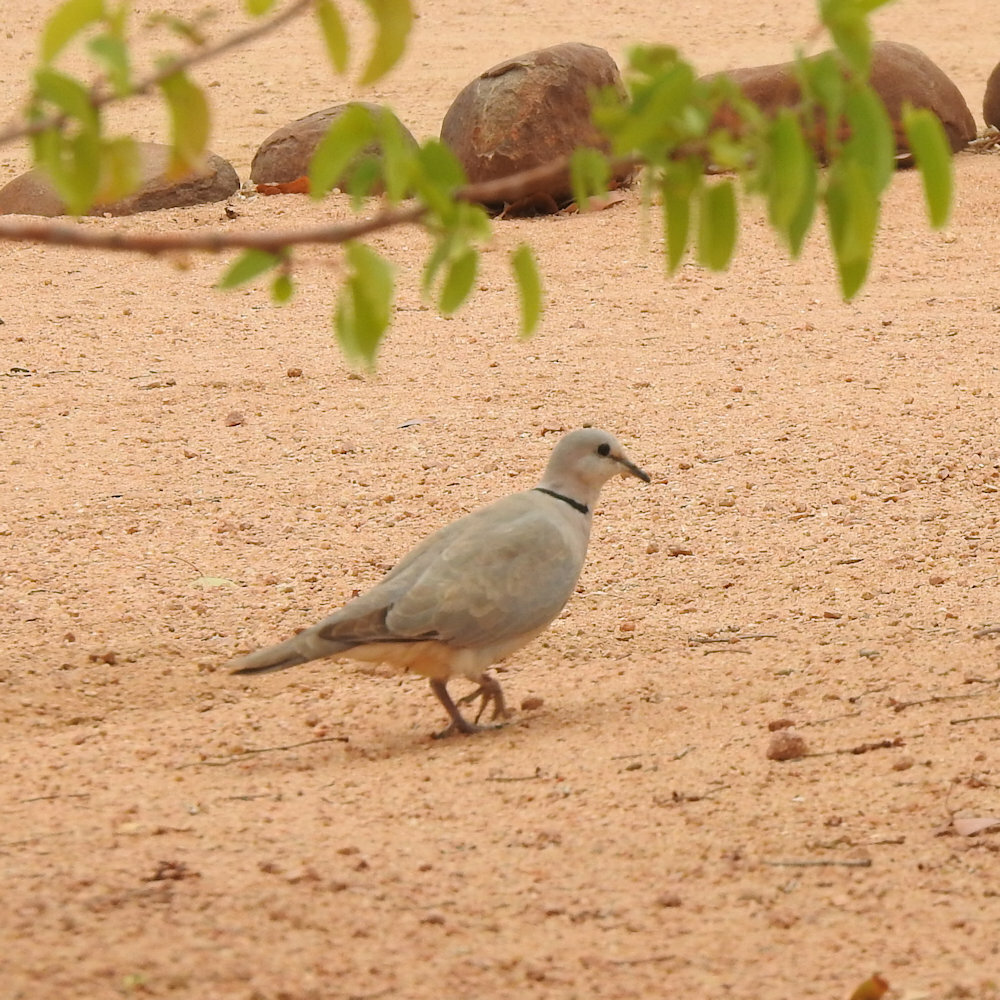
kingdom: Animalia
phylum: Chordata
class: Aves
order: Columbiformes
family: Columbidae
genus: Streptopelia
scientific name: Streptopelia capicola
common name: Ring-necked dove
